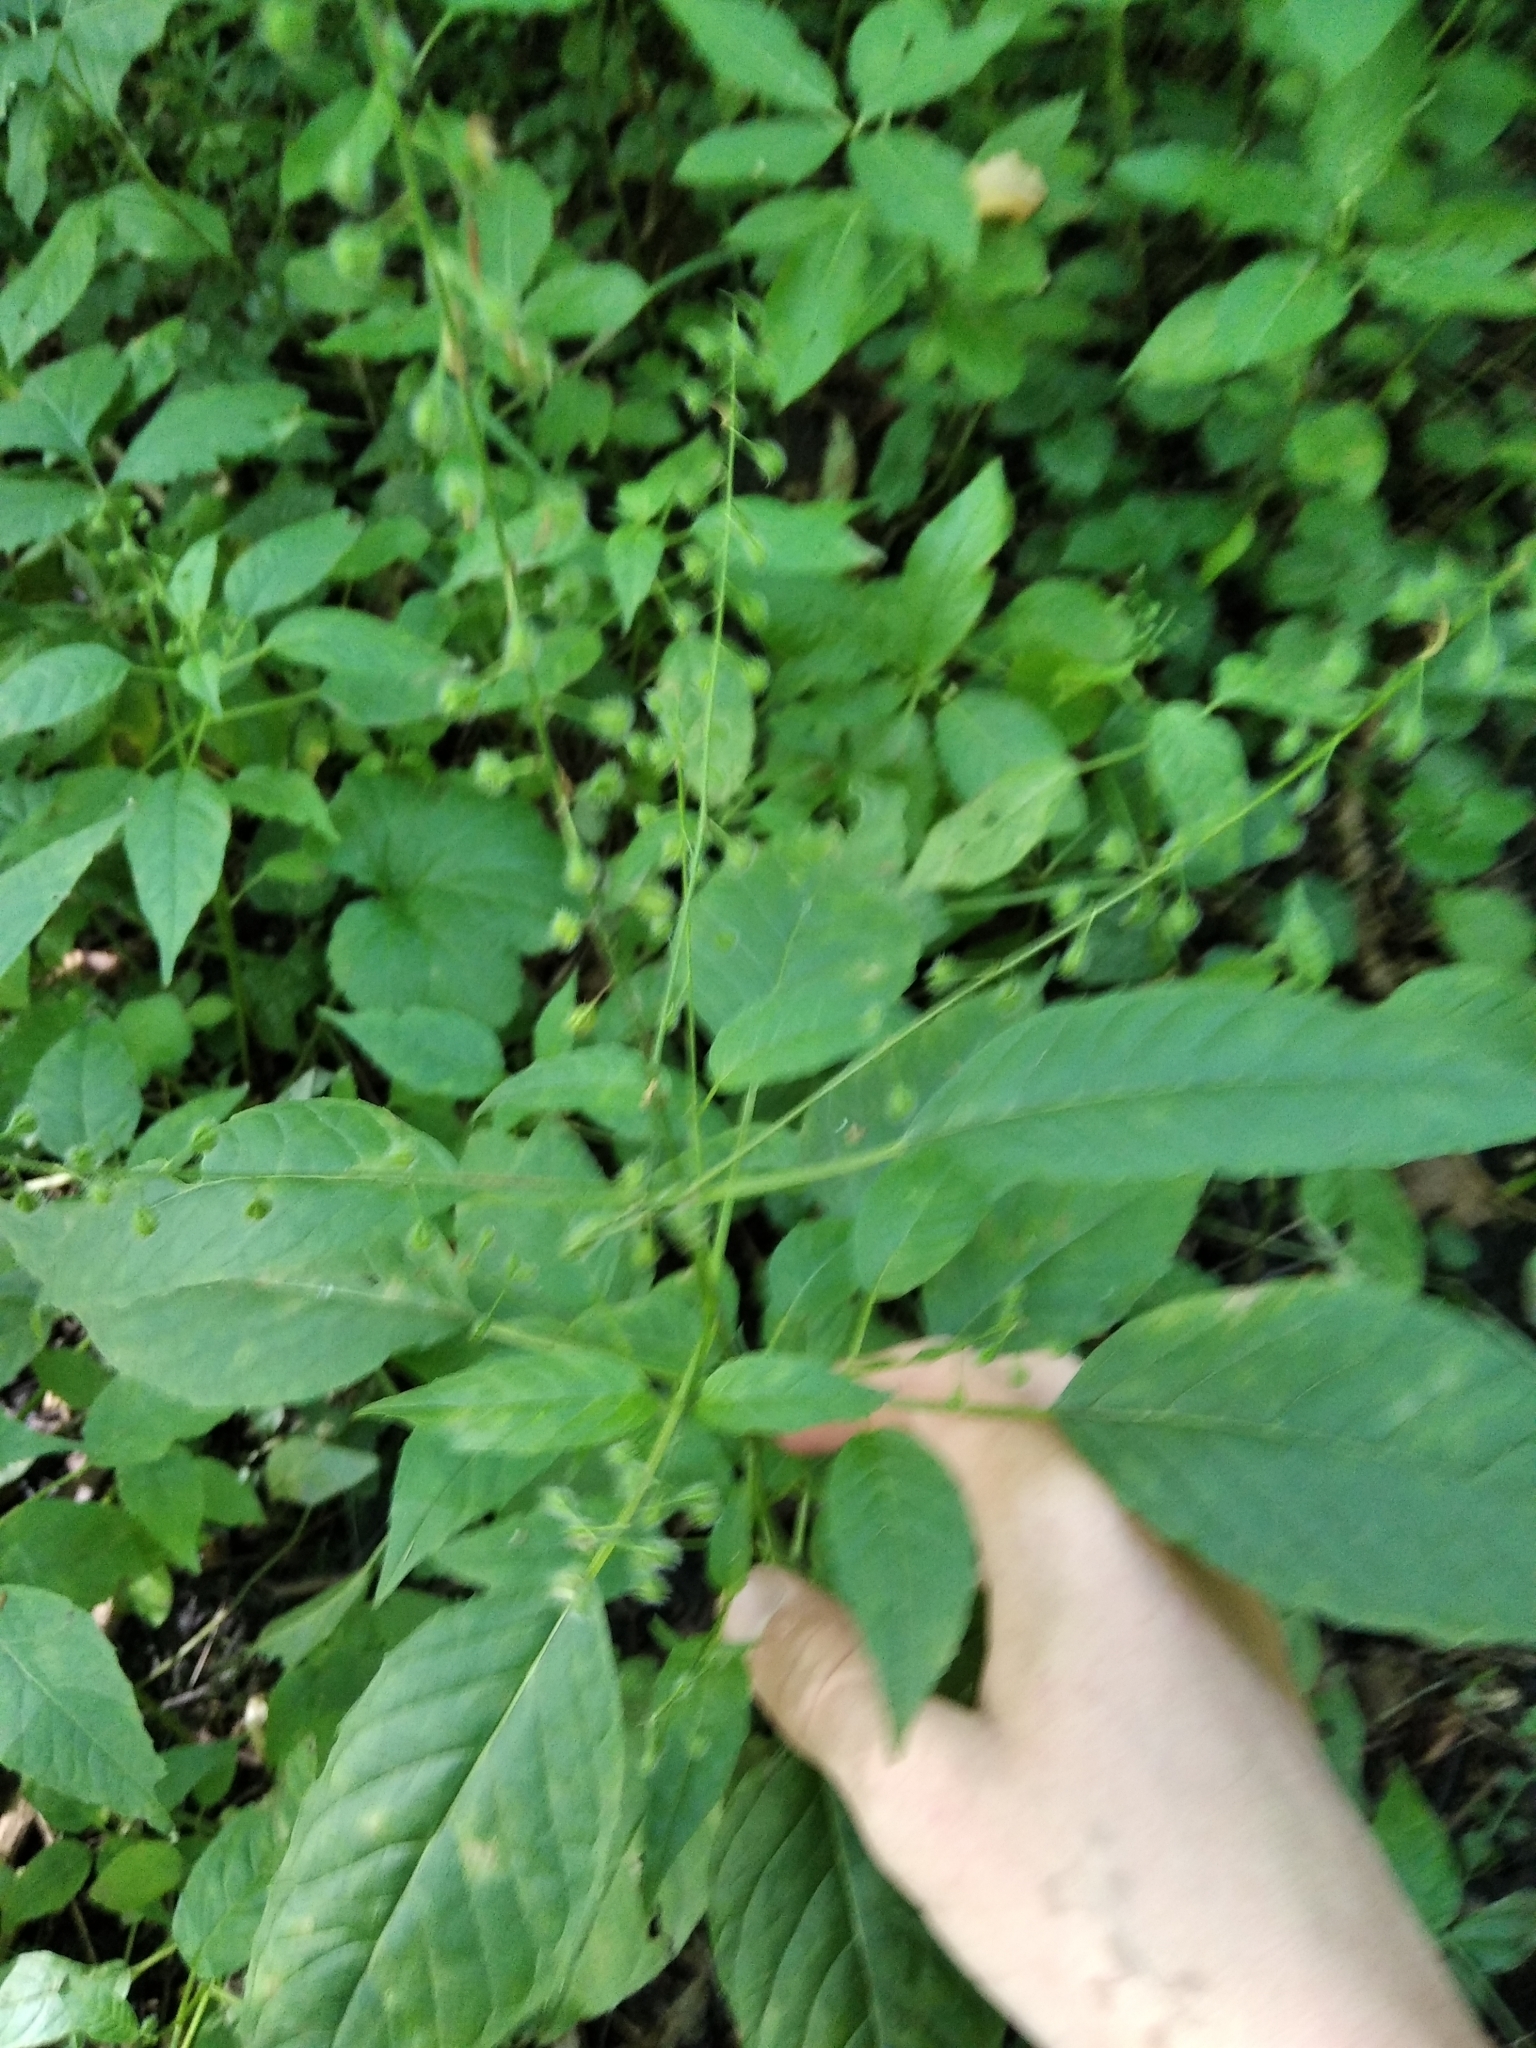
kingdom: Plantae
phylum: Tracheophyta
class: Magnoliopsida
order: Myrtales
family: Onagraceae
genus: Circaea
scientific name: Circaea lutetiana
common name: Enchanter's-nightshade
